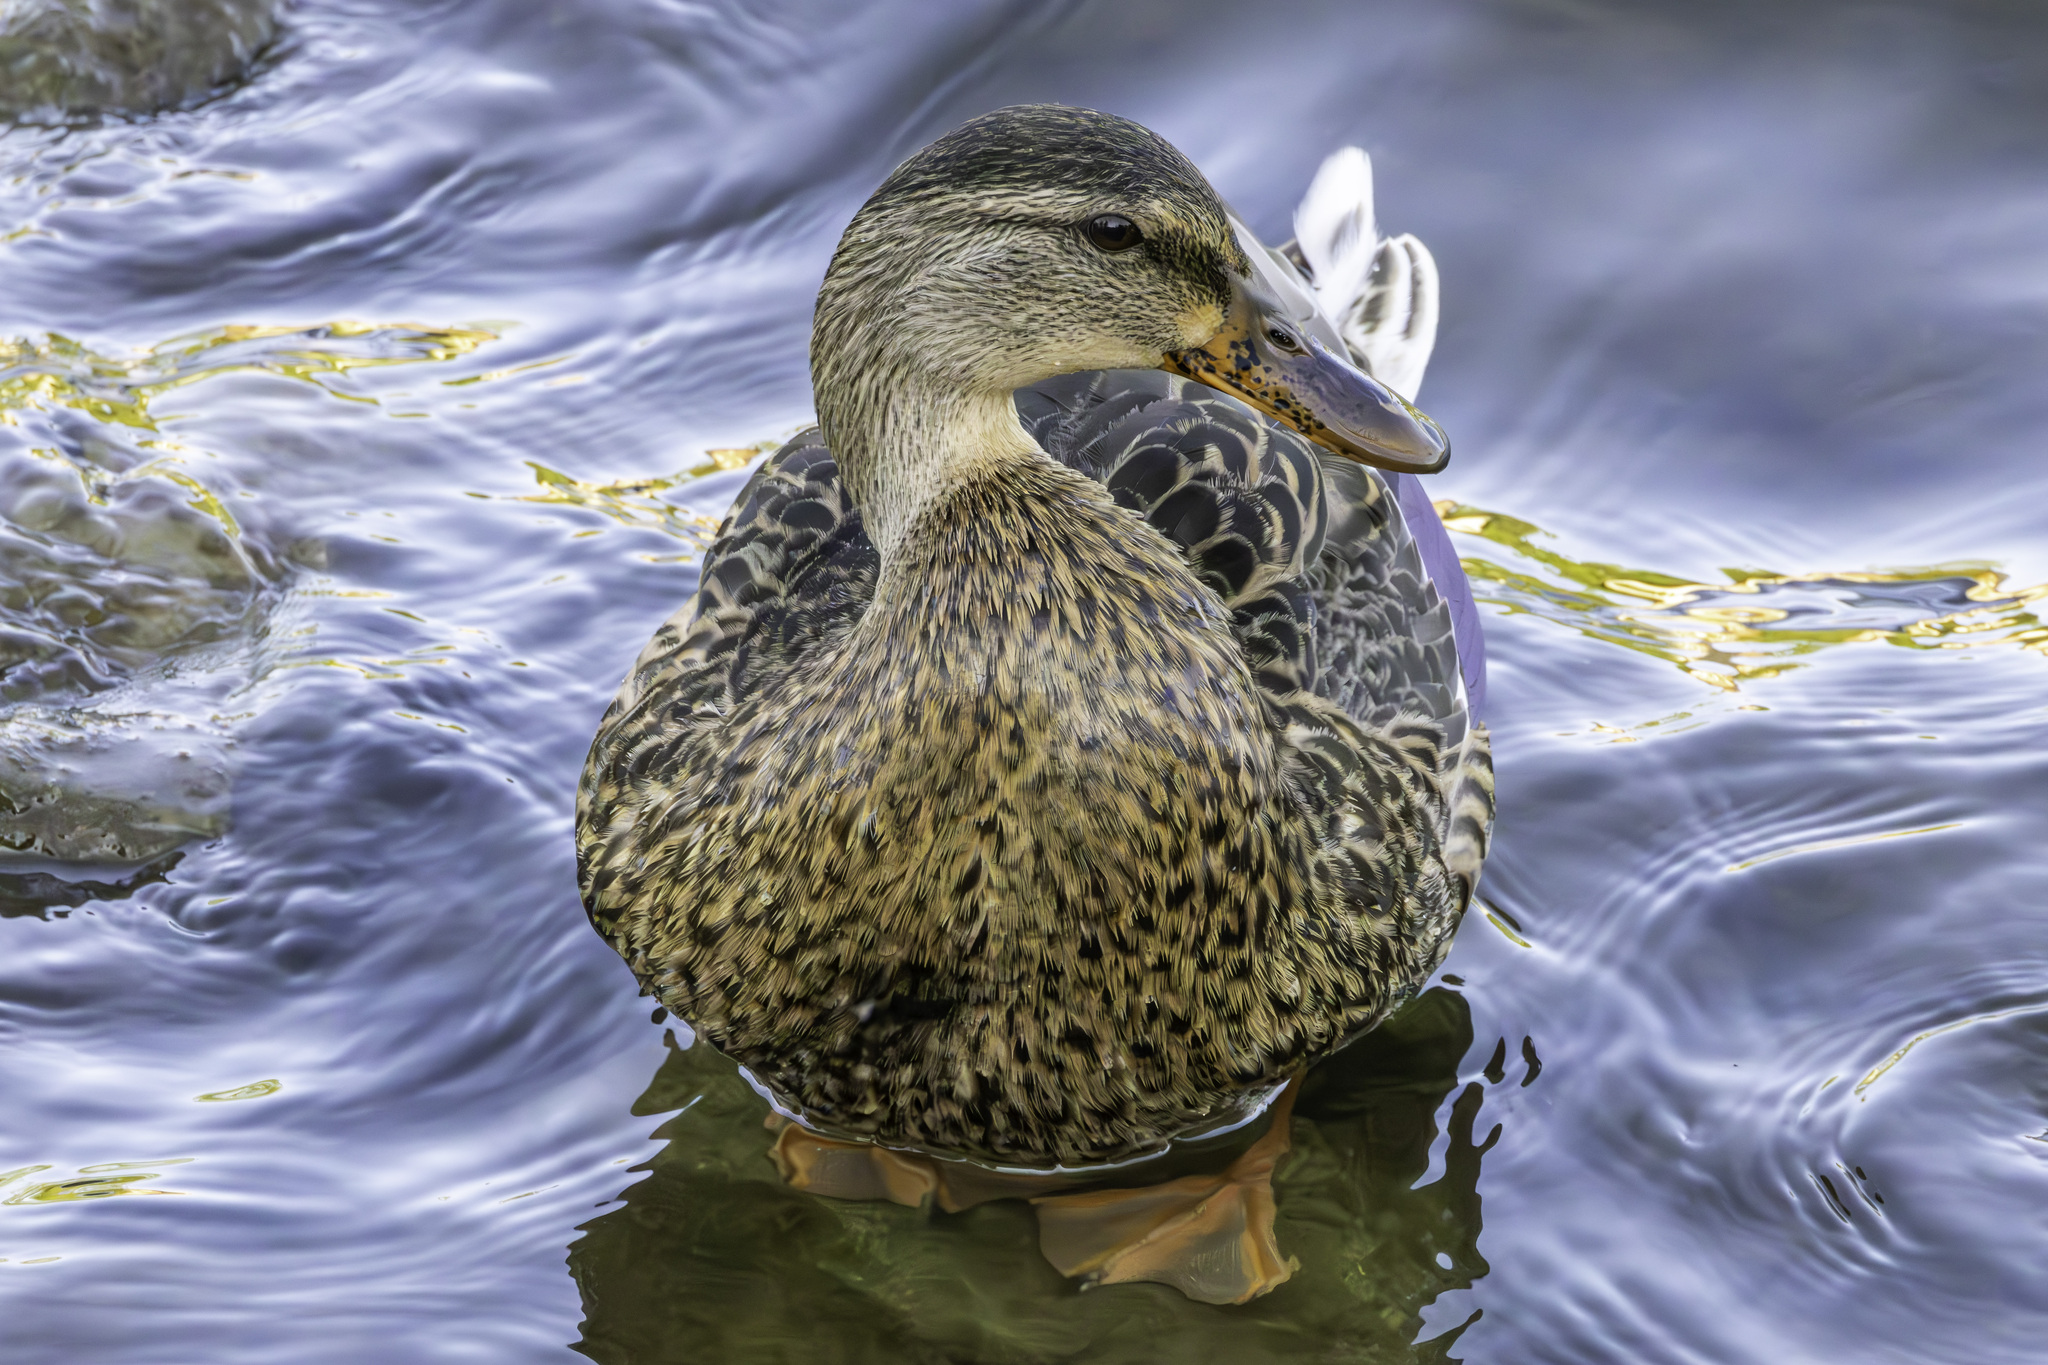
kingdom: Animalia
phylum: Chordata
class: Aves
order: Anseriformes
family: Anatidae
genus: Anas
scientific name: Anas platyrhynchos
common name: Mallard
